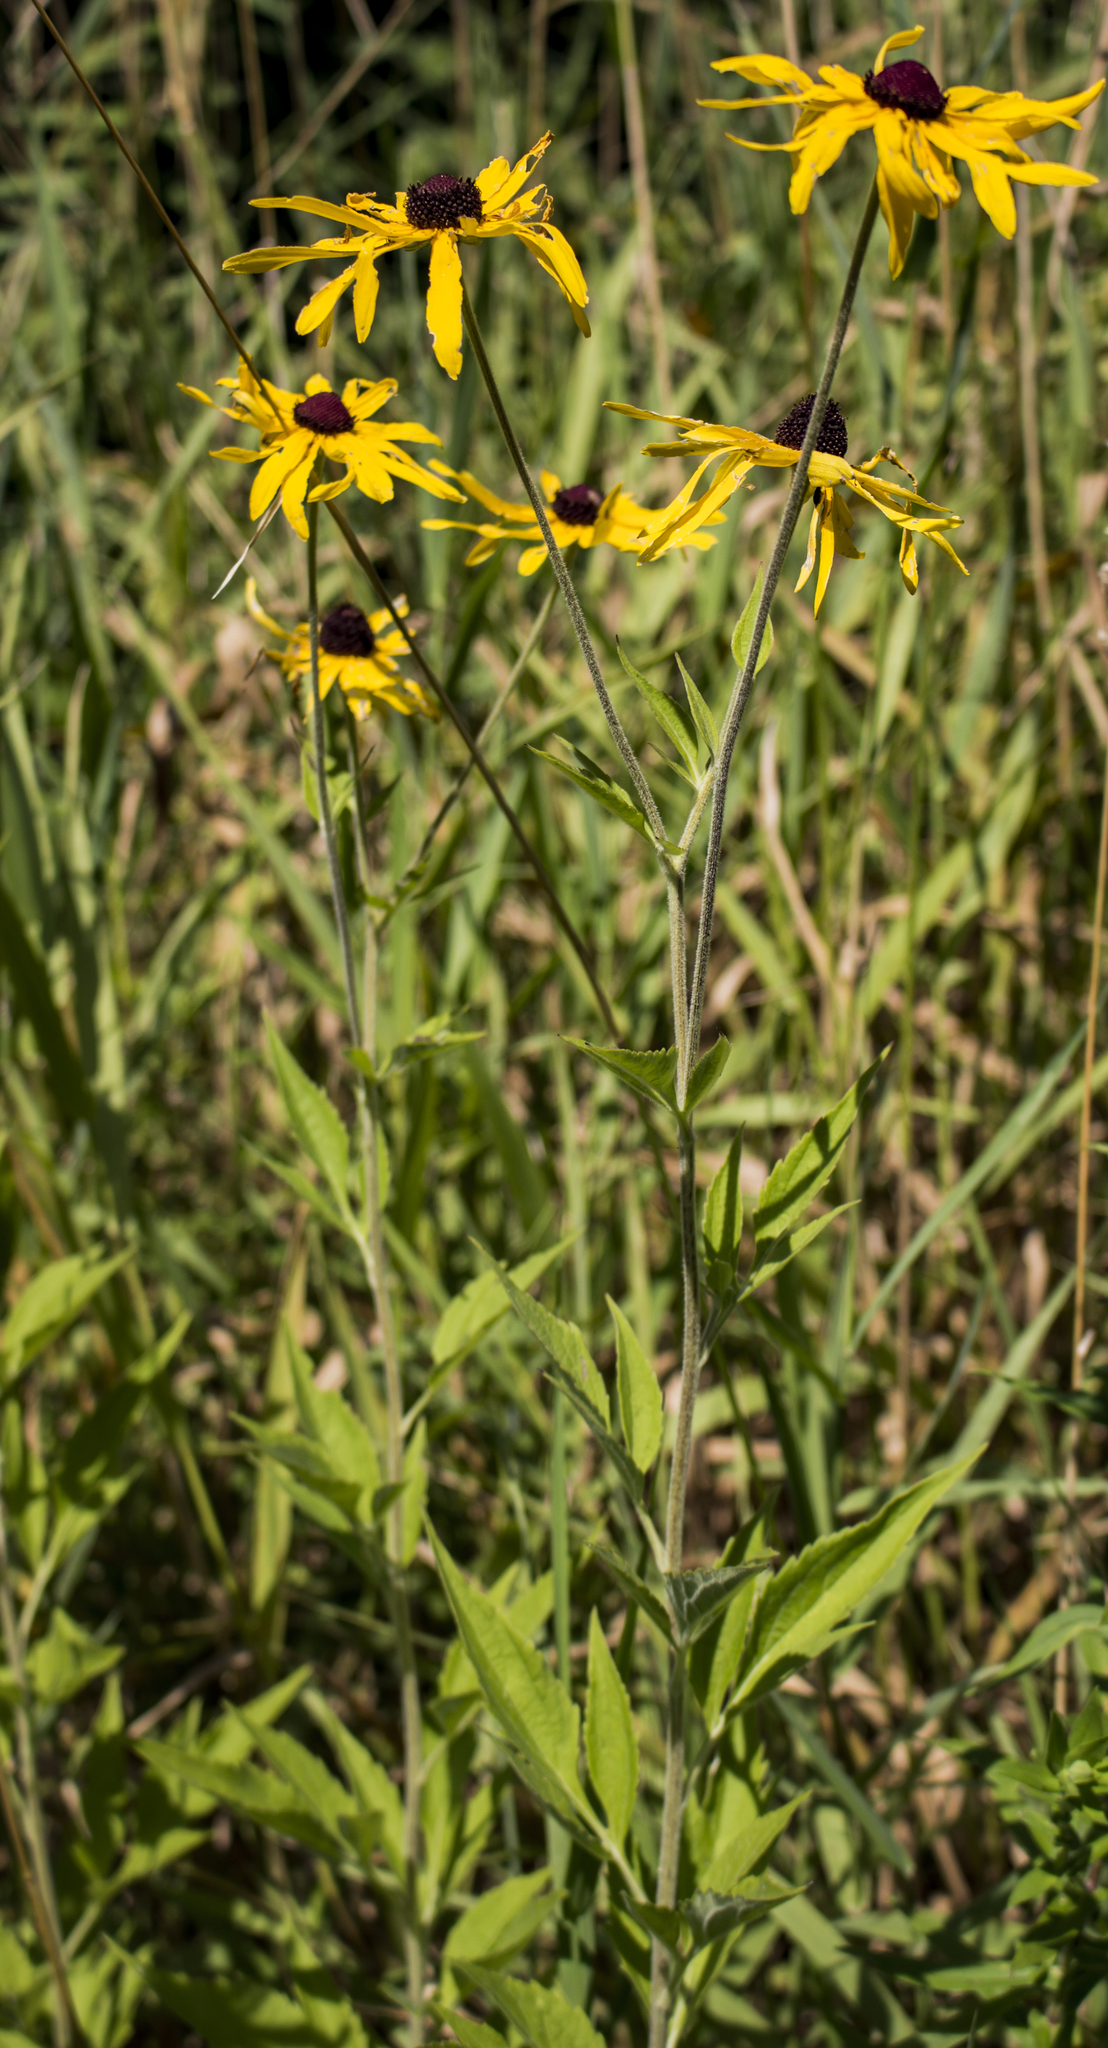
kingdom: Plantae
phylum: Tracheophyta
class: Magnoliopsida
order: Asterales
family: Asteraceae
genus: Rudbeckia
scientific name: Rudbeckia subtomentosa
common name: Sweet coneflower
